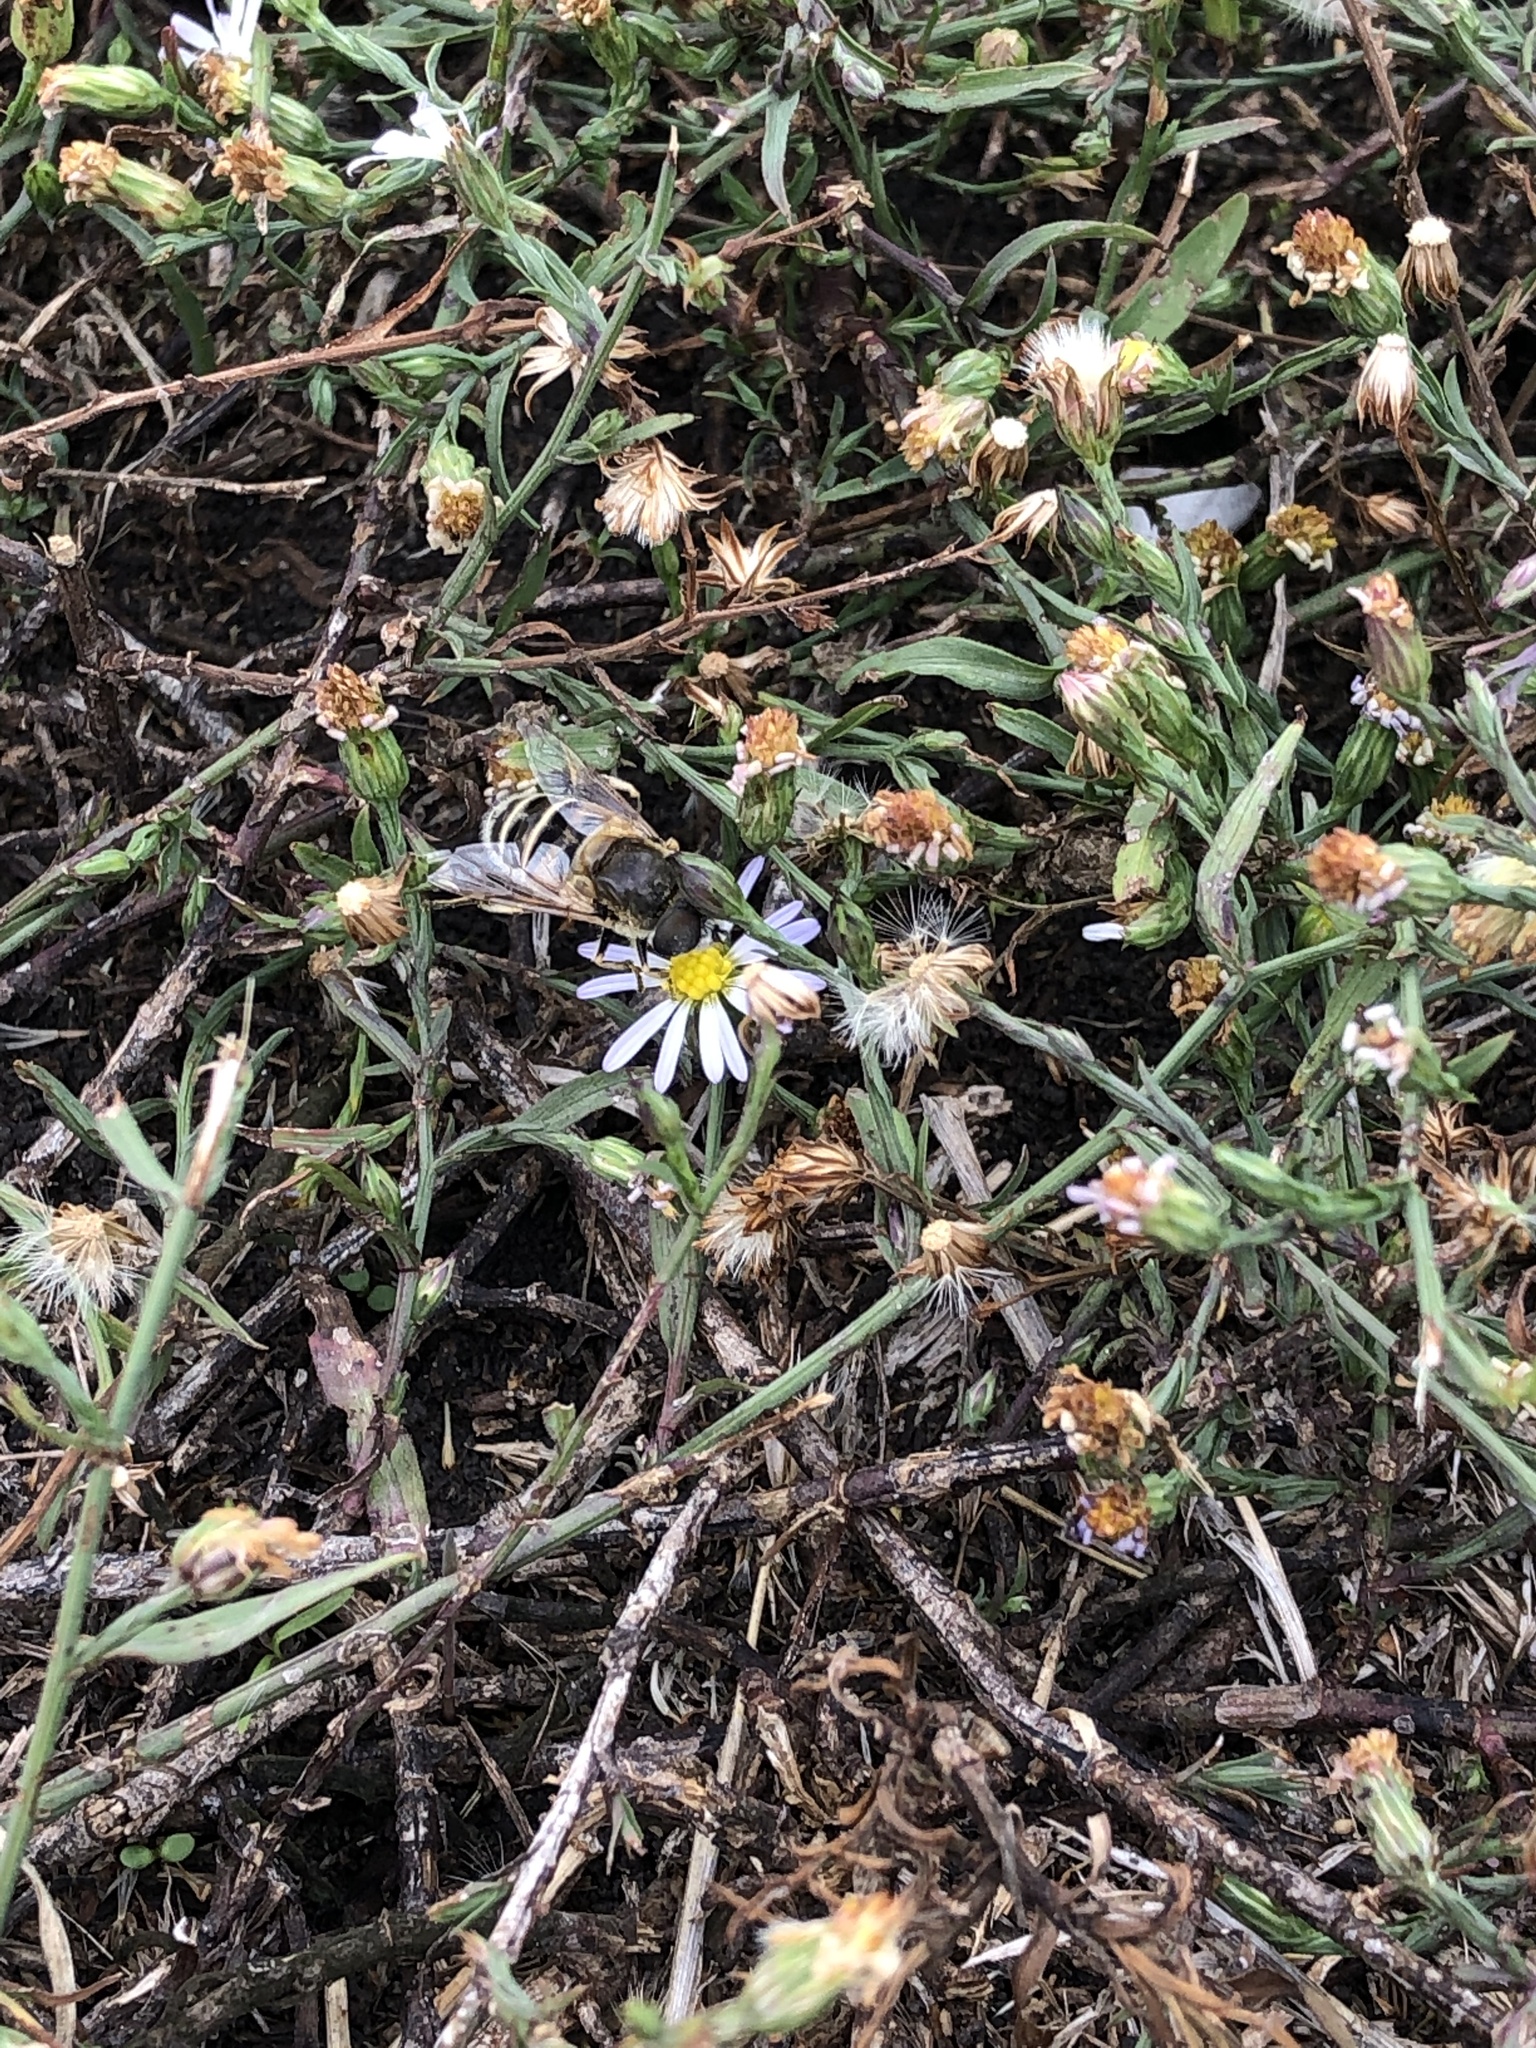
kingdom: Animalia
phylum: Arthropoda
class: Insecta
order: Diptera
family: Syrphidae
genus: Eristalis
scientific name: Eristalis stipator
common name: Yellow-shouldered drone fly
